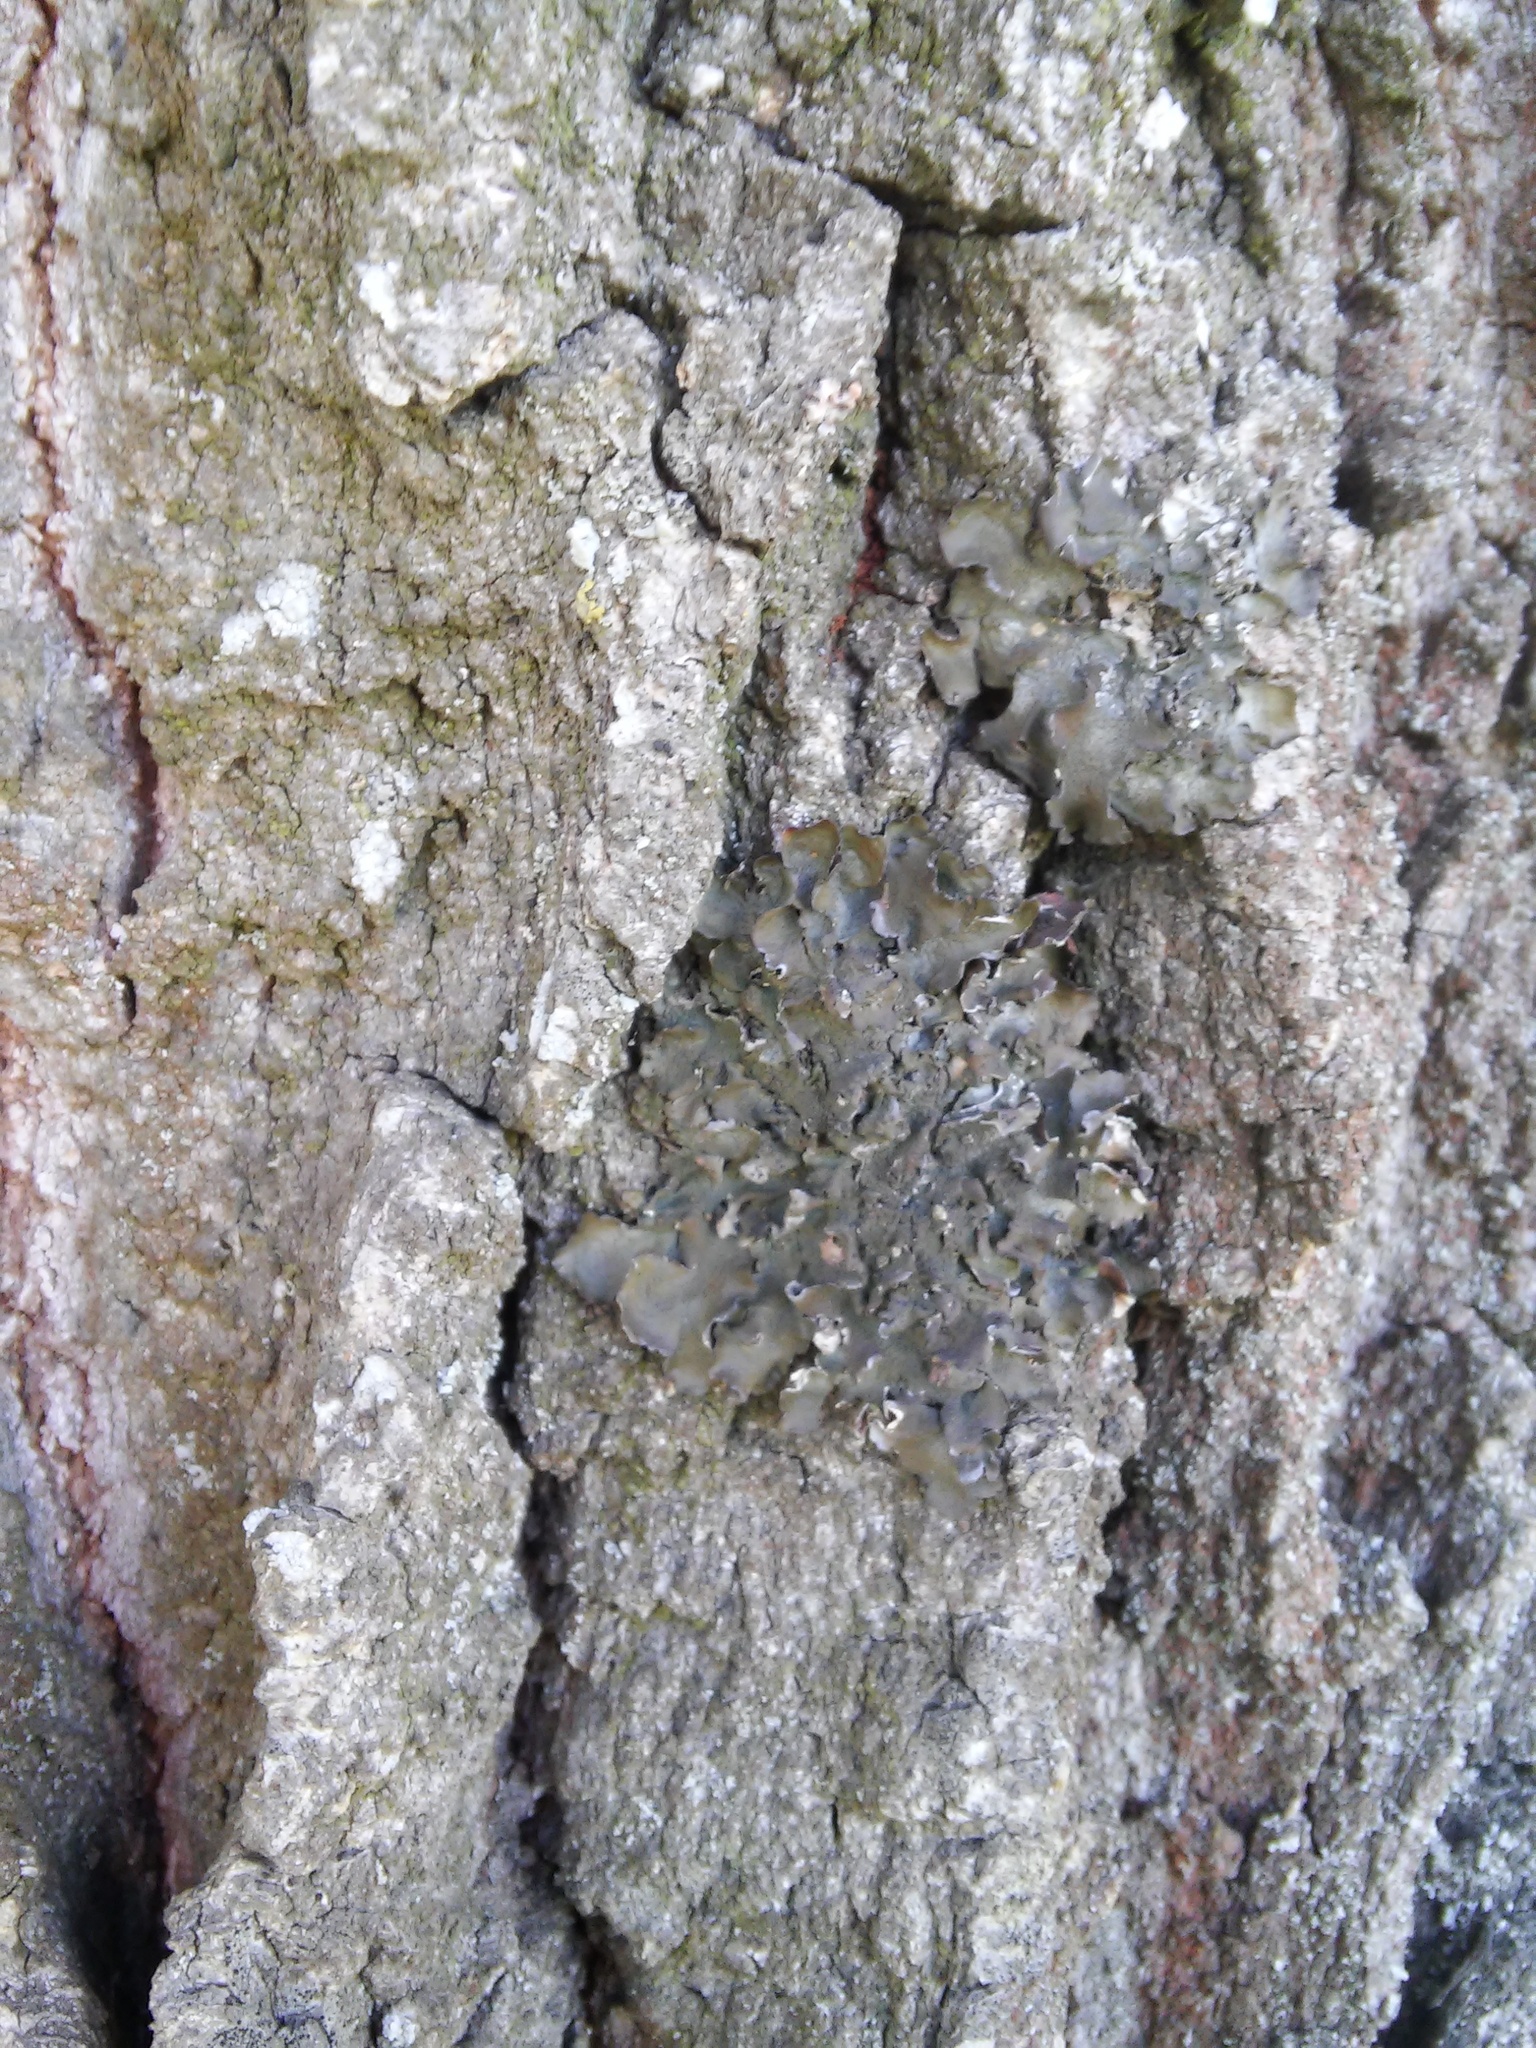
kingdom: Fungi
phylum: Ascomycota
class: Lecanoromycetes
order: Lecanorales
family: Parmeliaceae
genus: Pleurosticta
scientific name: Pleurosticta acetabulum
